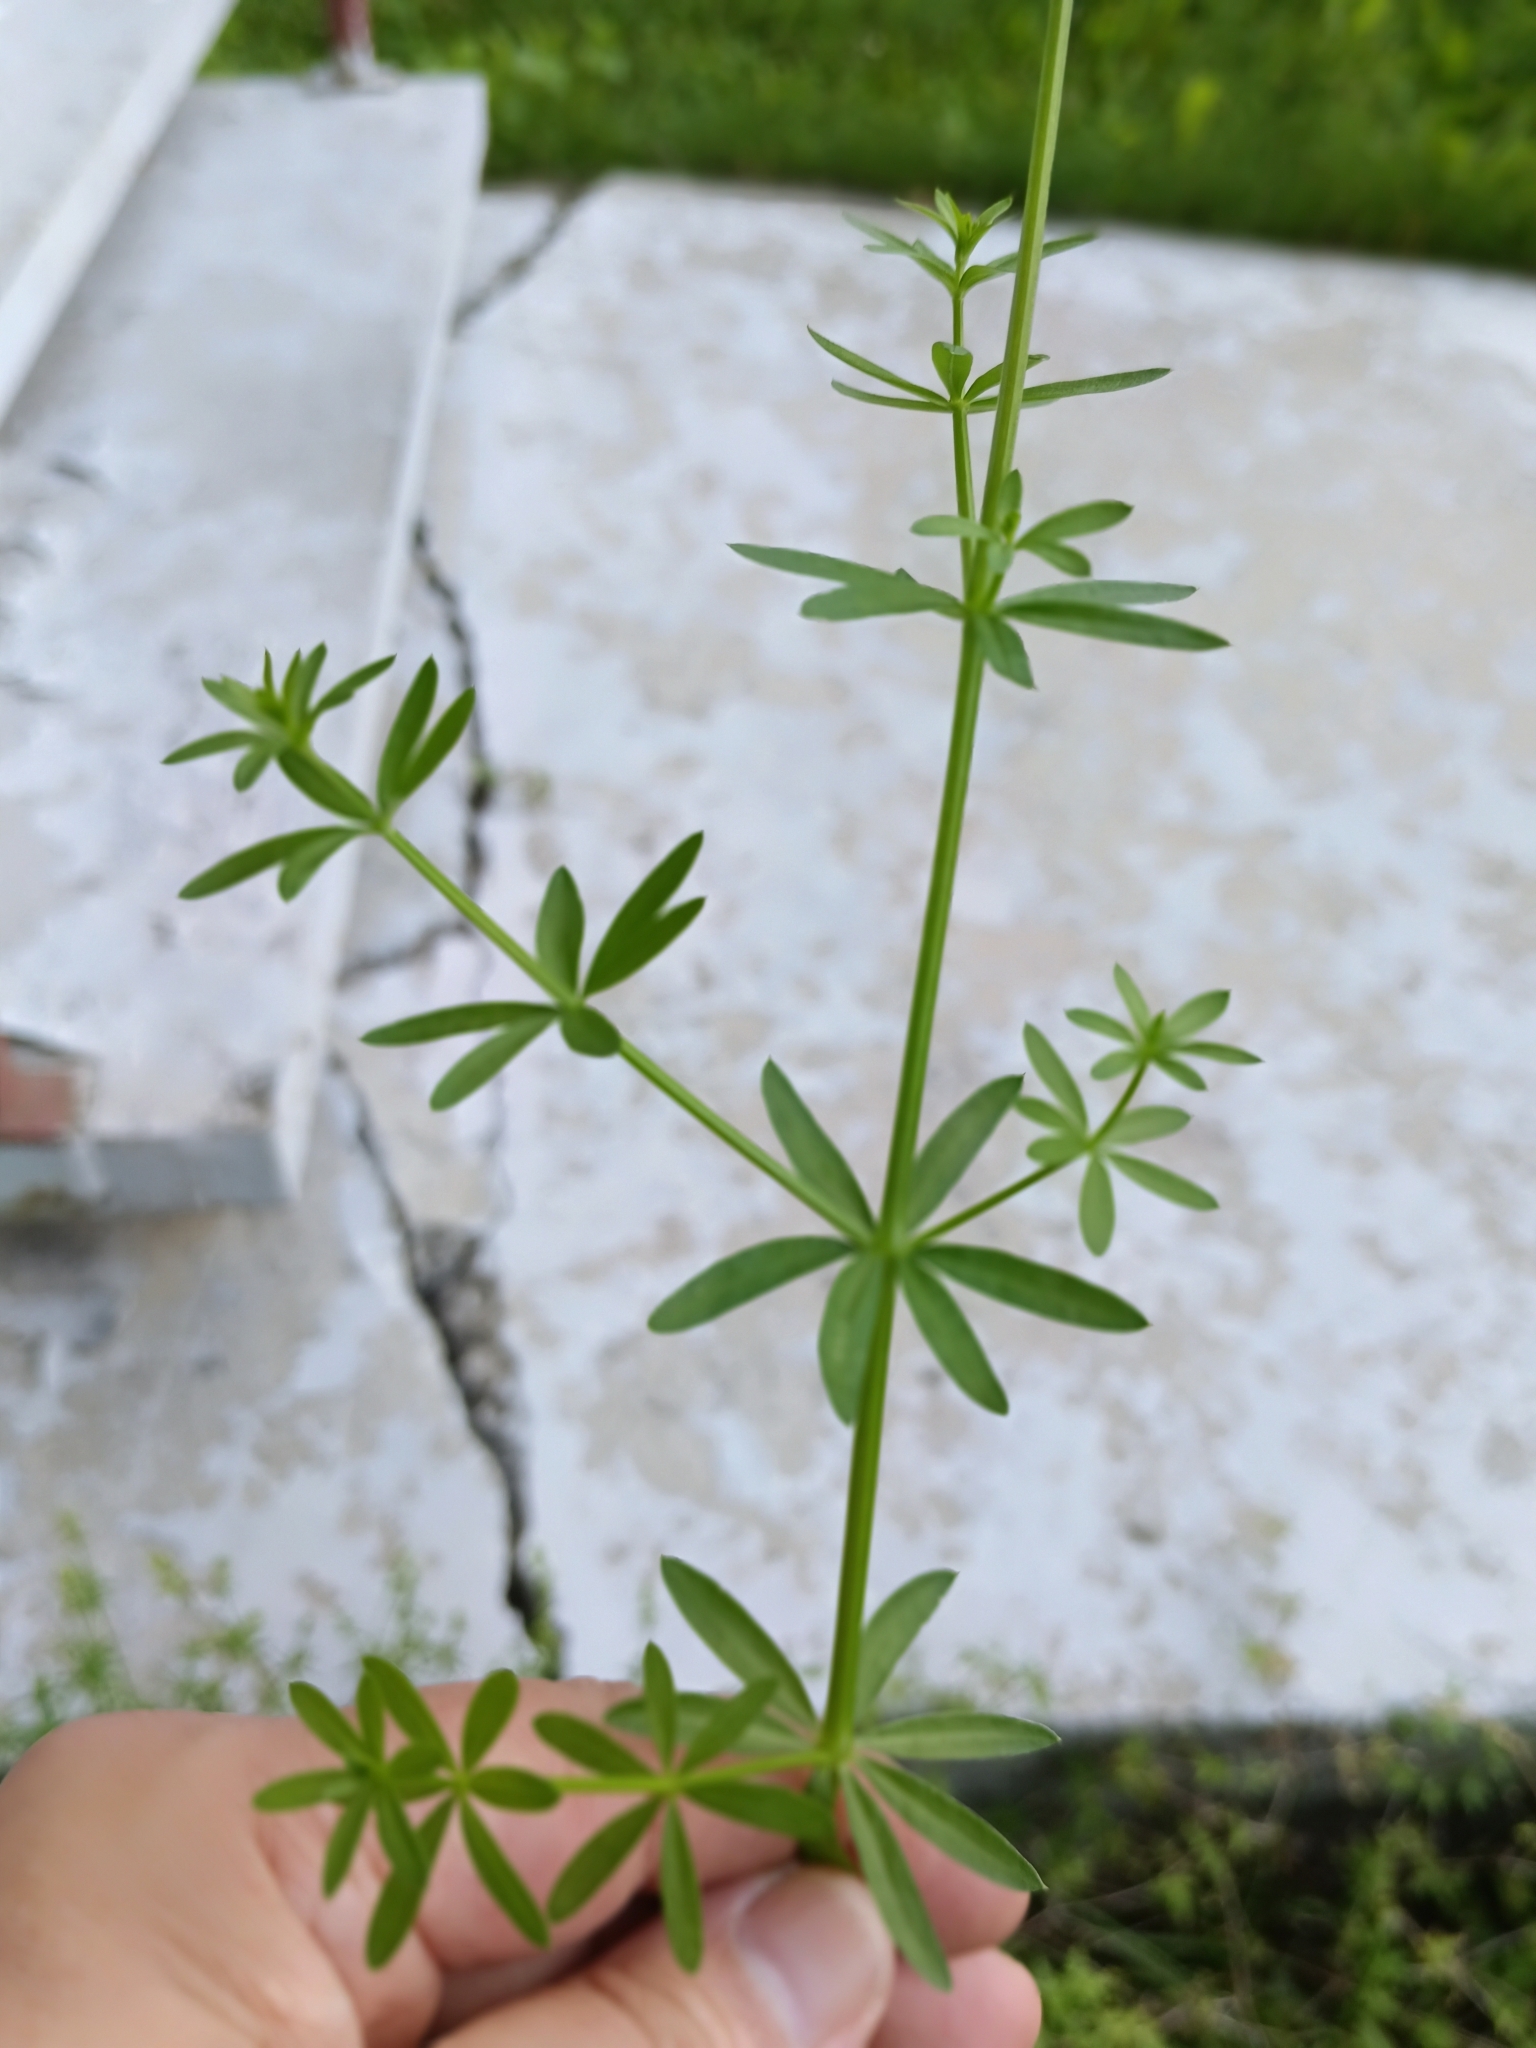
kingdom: Plantae
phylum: Tracheophyta
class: Magnoliopsida
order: Gentianales
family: Rubiaceae
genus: Galium
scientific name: Galium mollugo
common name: Hedge bedstraw
